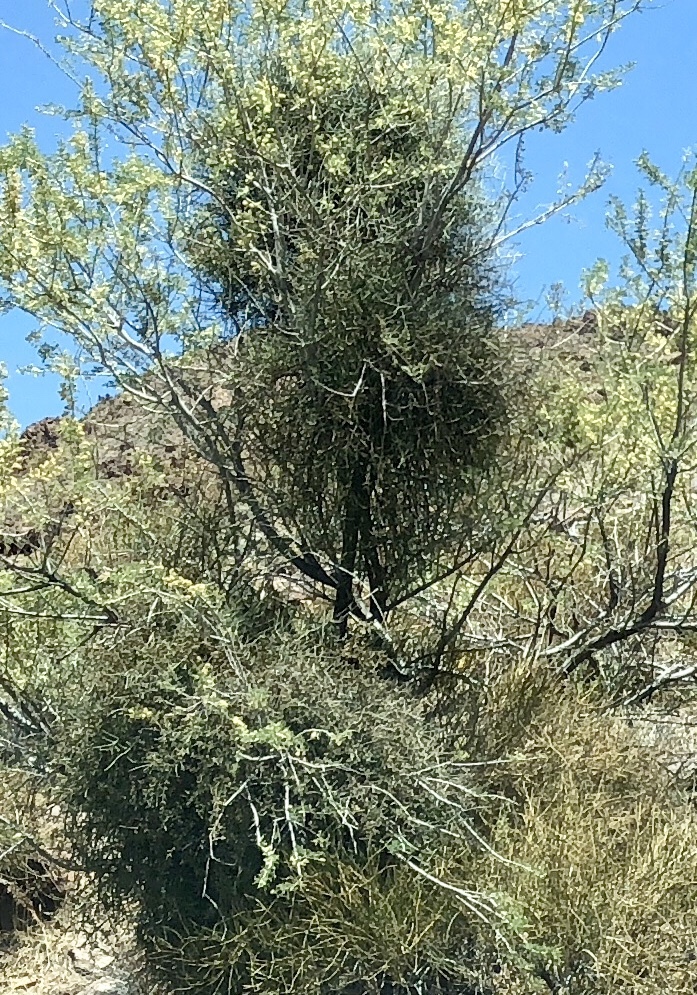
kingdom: Plantae
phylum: Tracheophyta
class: Magnoliopsida
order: Santalales
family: Viscaceae
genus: Phoradendron
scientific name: Phoradendron californicum
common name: Acacia mistletoe
